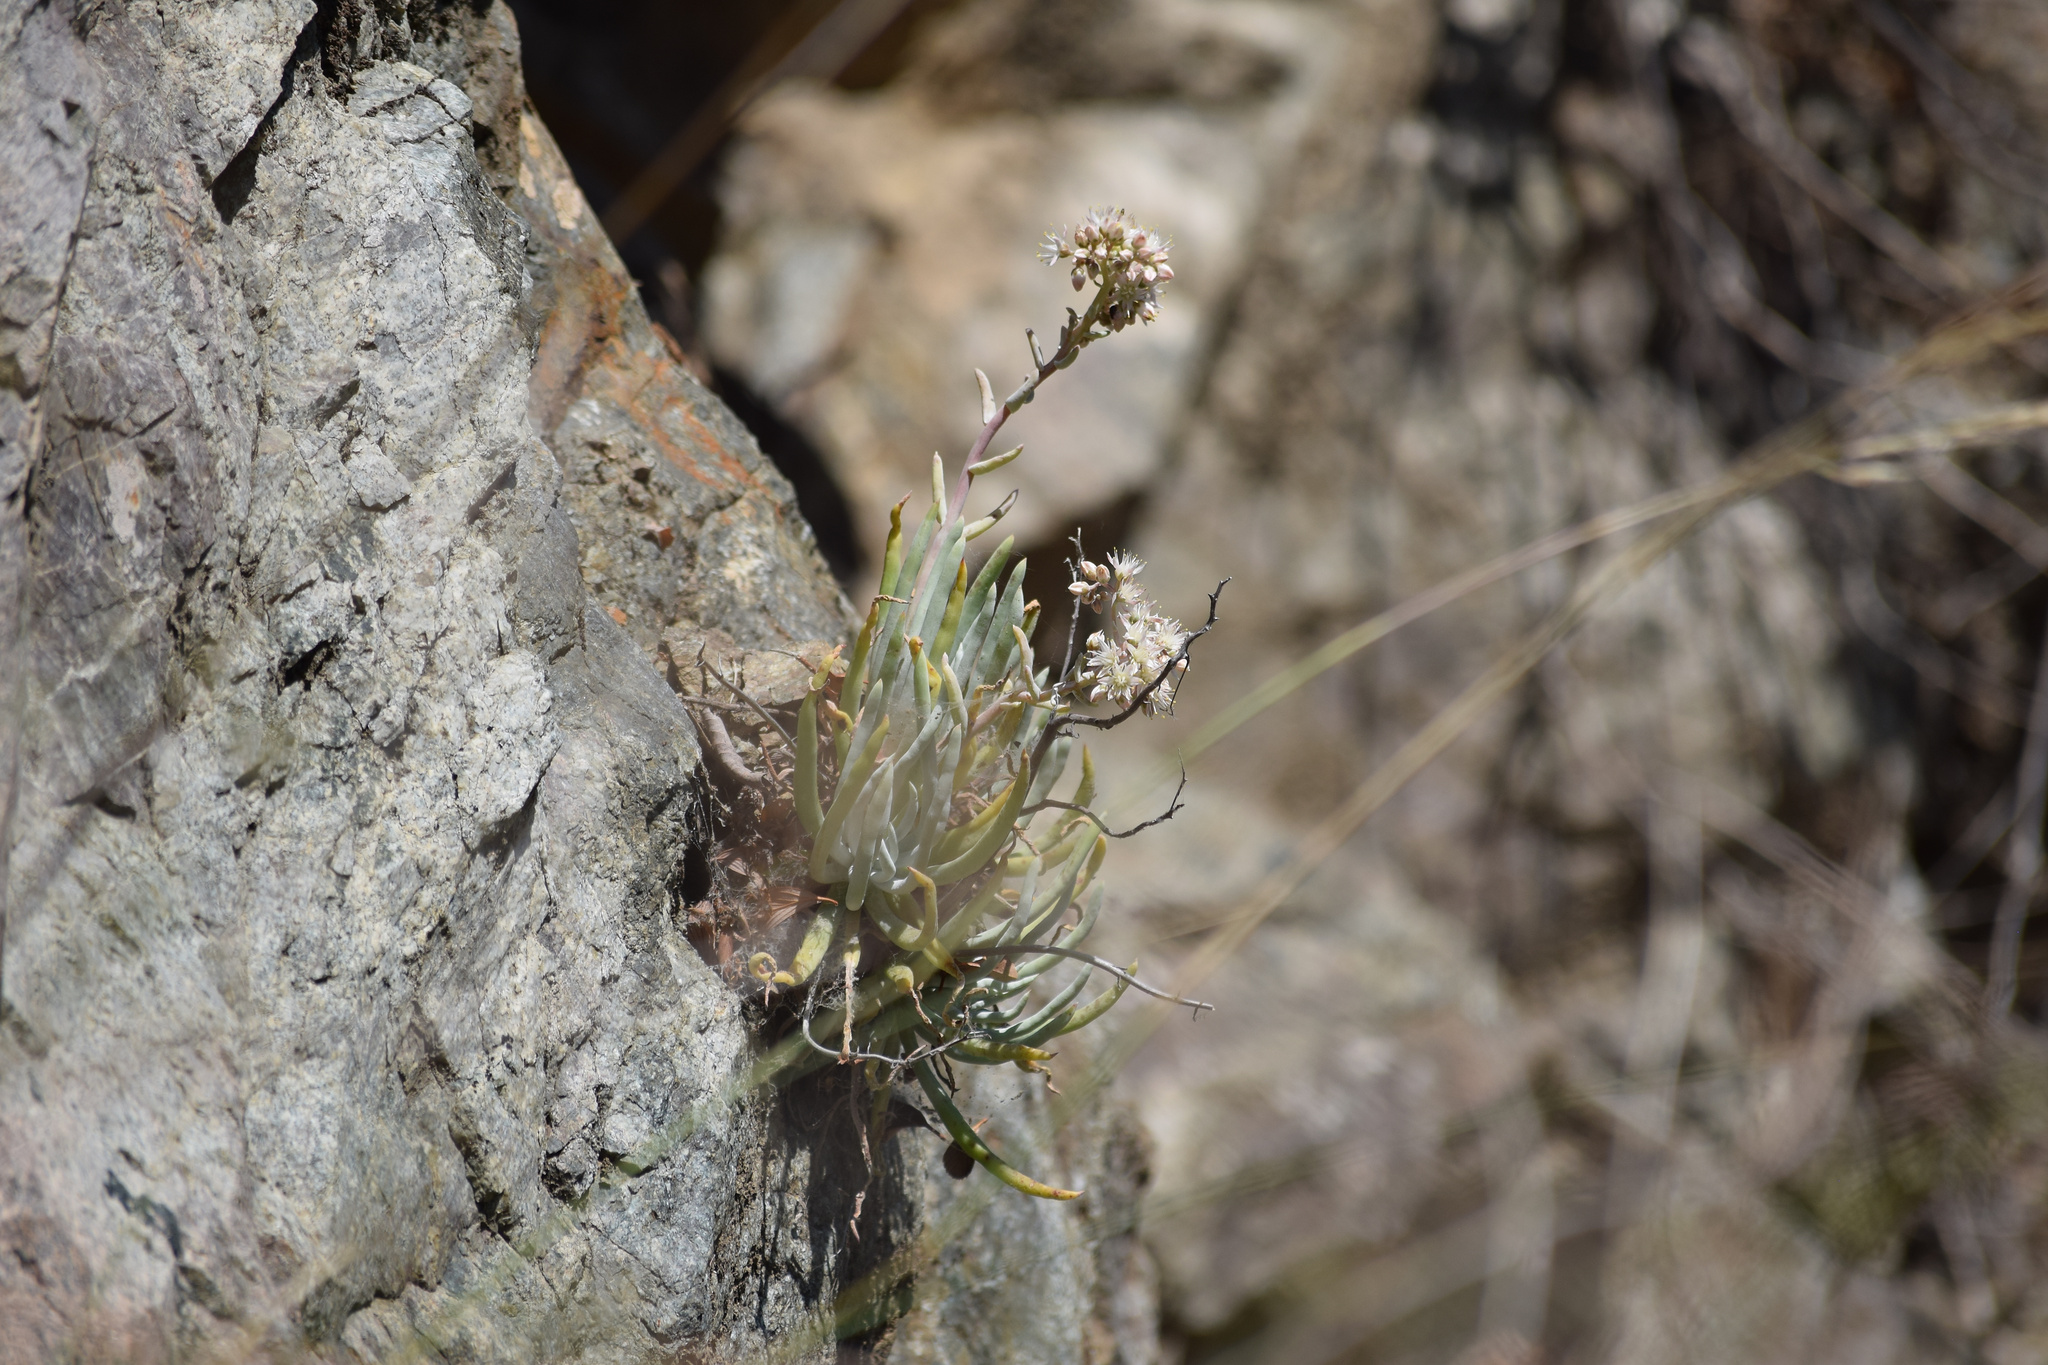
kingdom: Plantae
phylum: Tracheophyta
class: Magnoliopsida
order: Saxifragales
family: Crassulaceae
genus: Dudleya
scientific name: Dudleya densiflora
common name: San gabriel mountains dudleya
